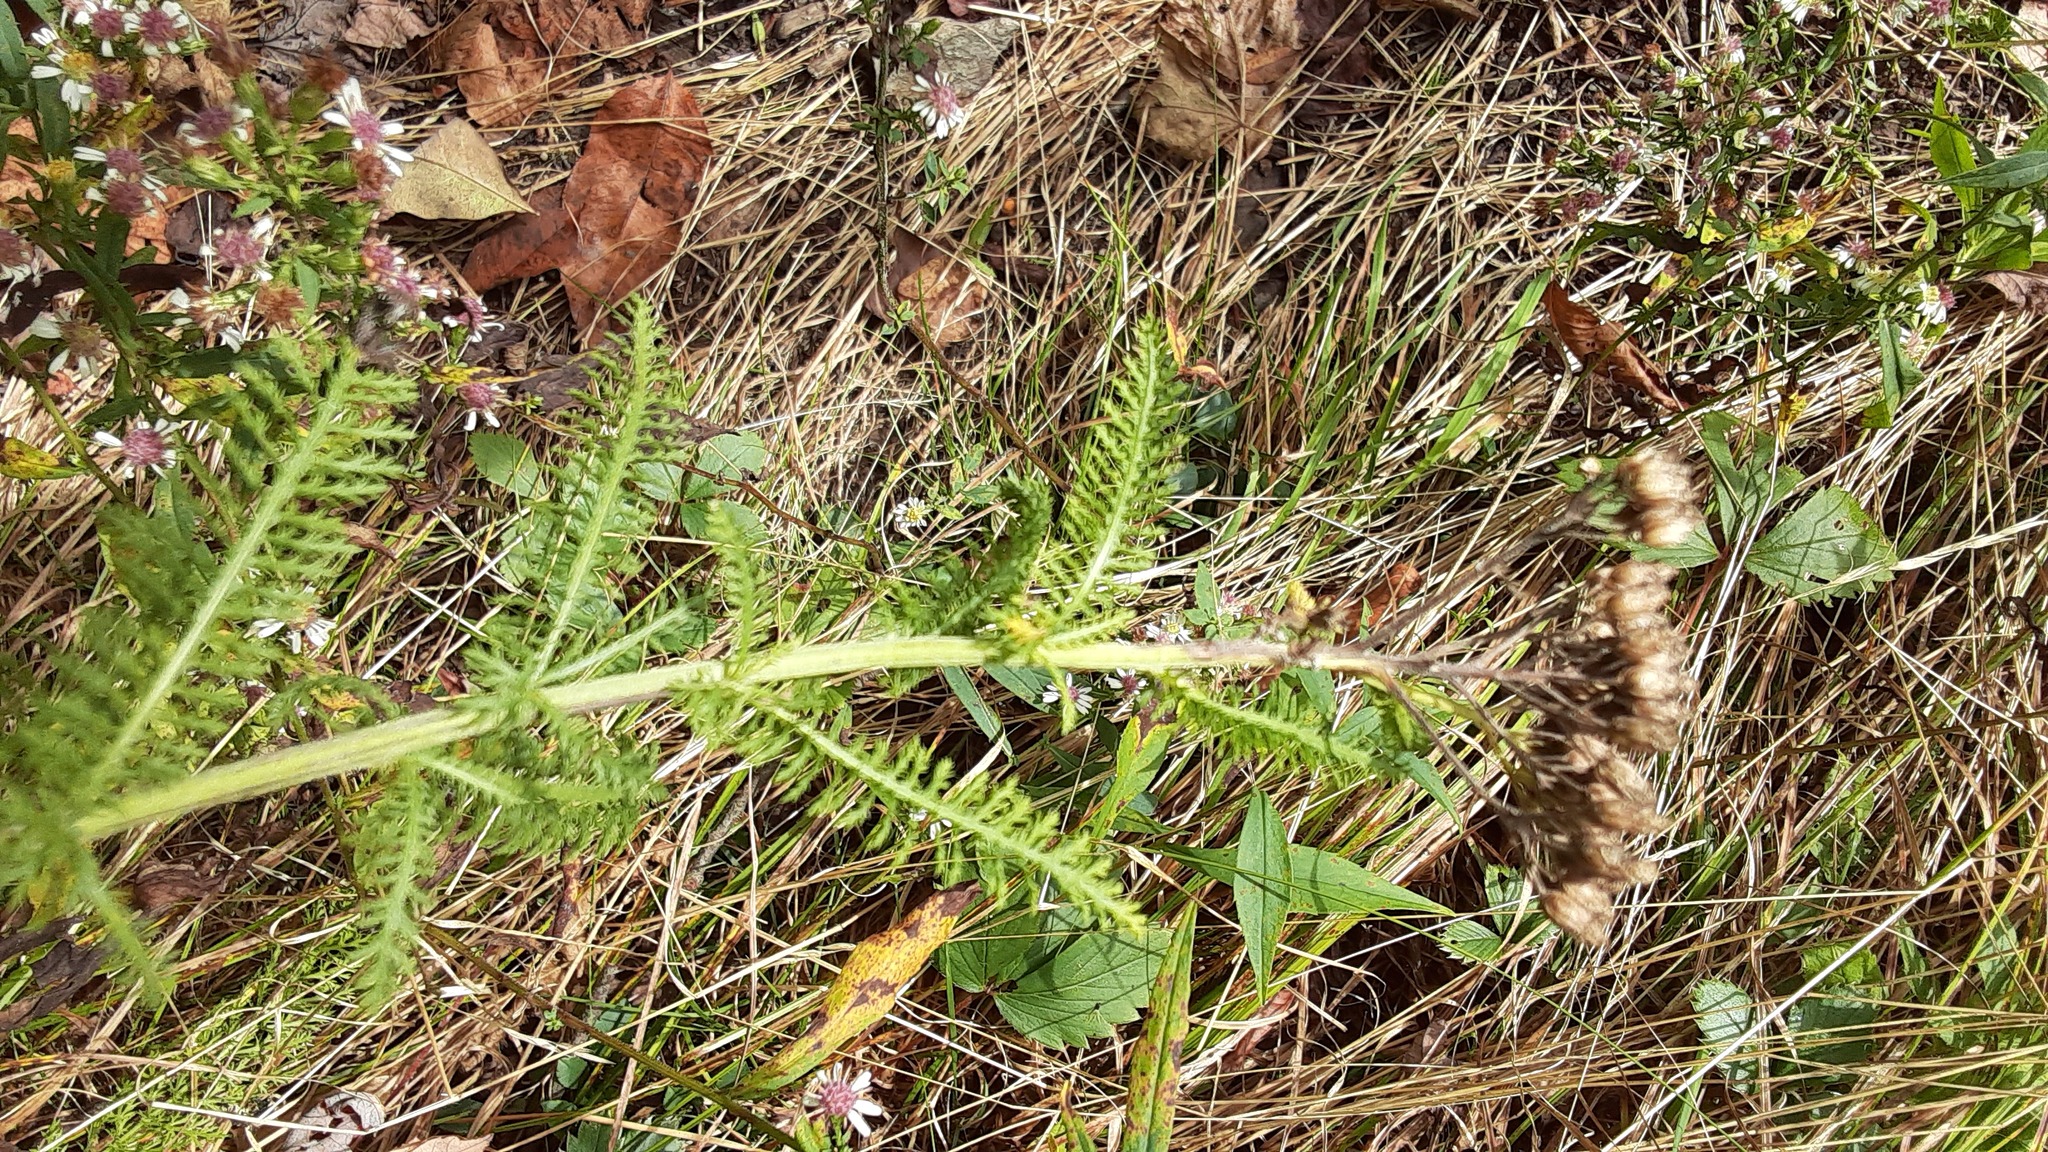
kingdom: Plantae
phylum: Tracheophyta
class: Magnoliopsida
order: Asterales
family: Asteraceae
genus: Achillea
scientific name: Achillea millefolium
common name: Yarrow
